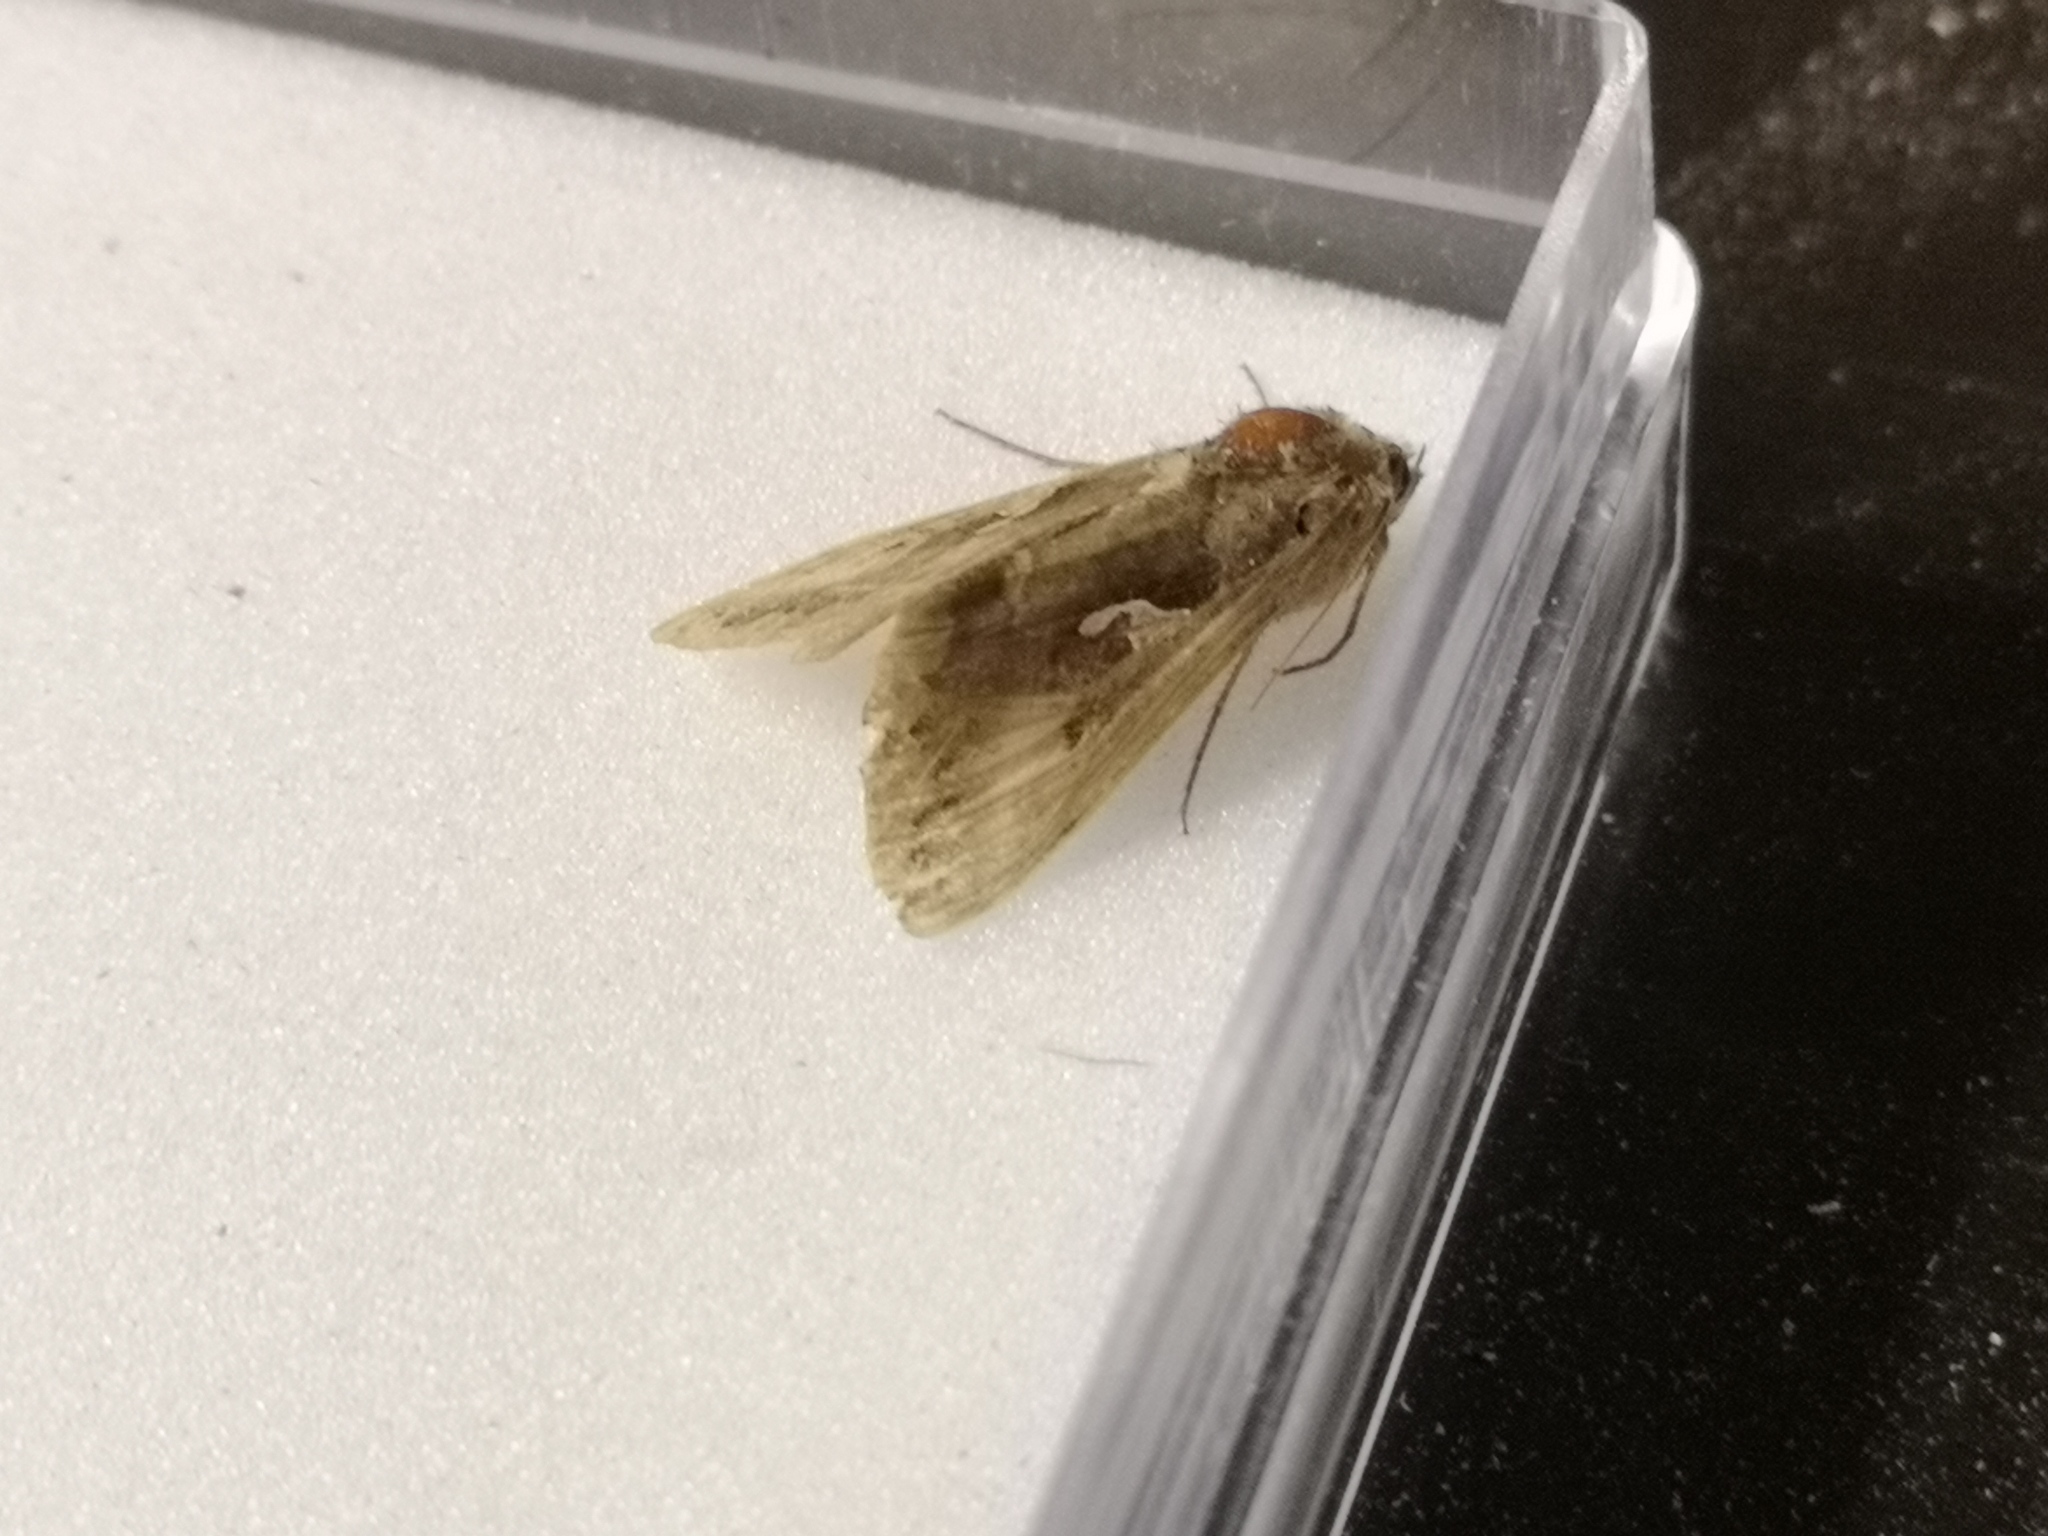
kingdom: Animalia
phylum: Arthropoda
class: Insecta
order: Lepidoptera
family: Noctuidae
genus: Autographa
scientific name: Autographa gamma
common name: Silver y
